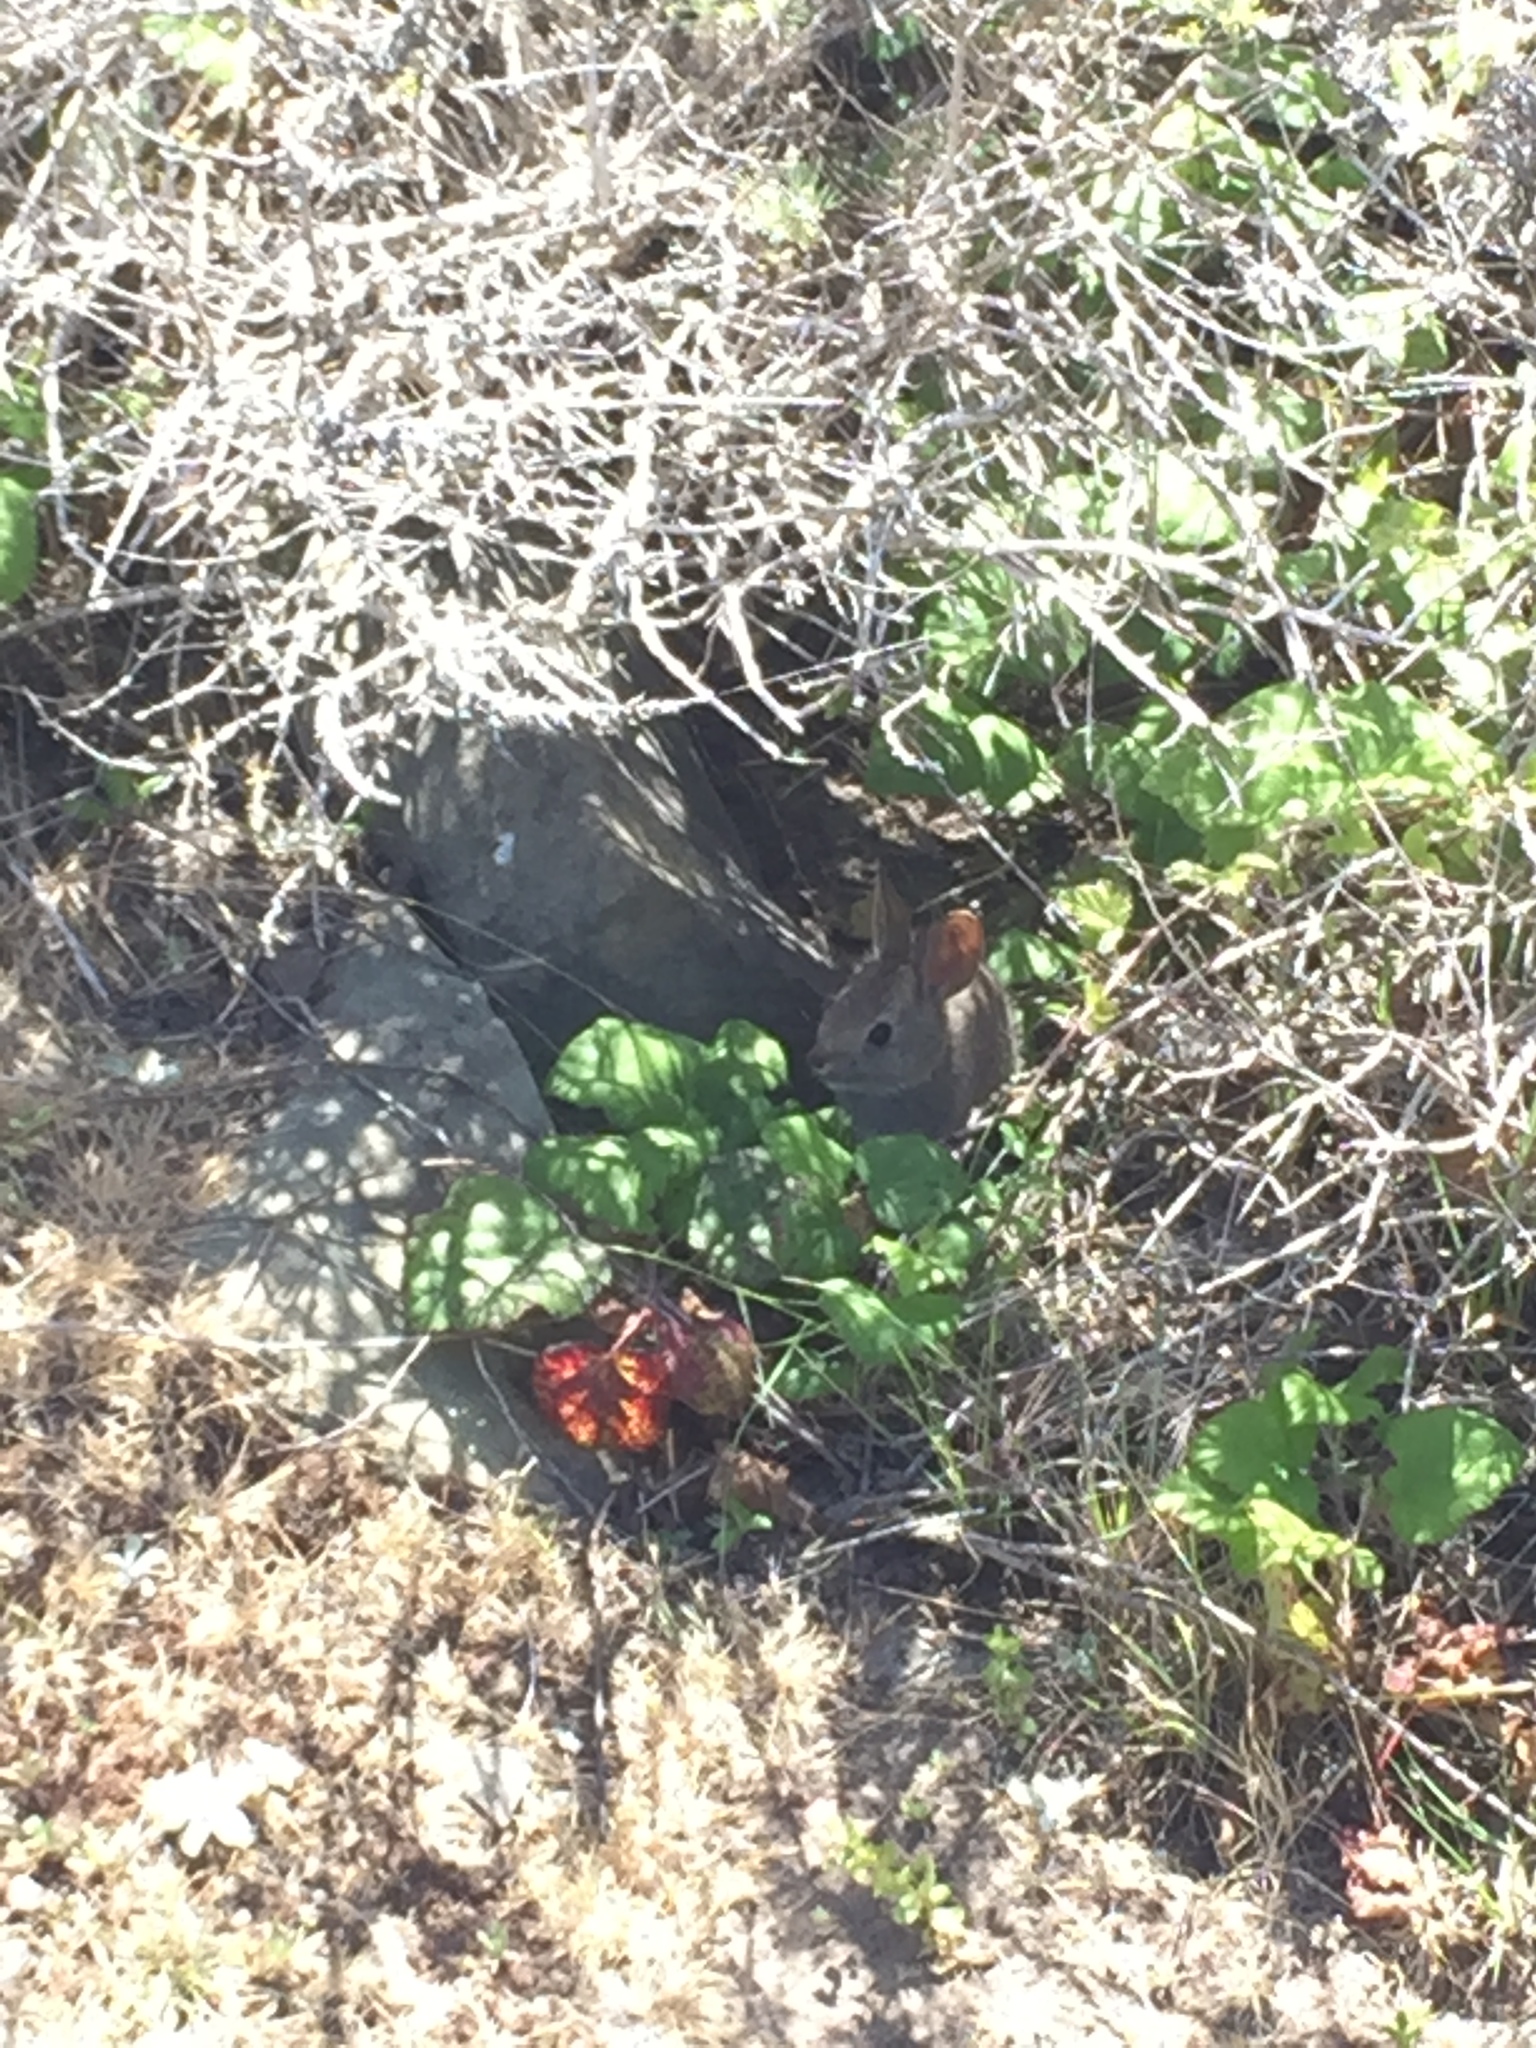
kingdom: Animalia
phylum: Chordata
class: Mammalia
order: Lagomorpha
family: Leporidae
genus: Sylvilagus
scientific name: Sylvilagus bachmani
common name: Brush rabbit
